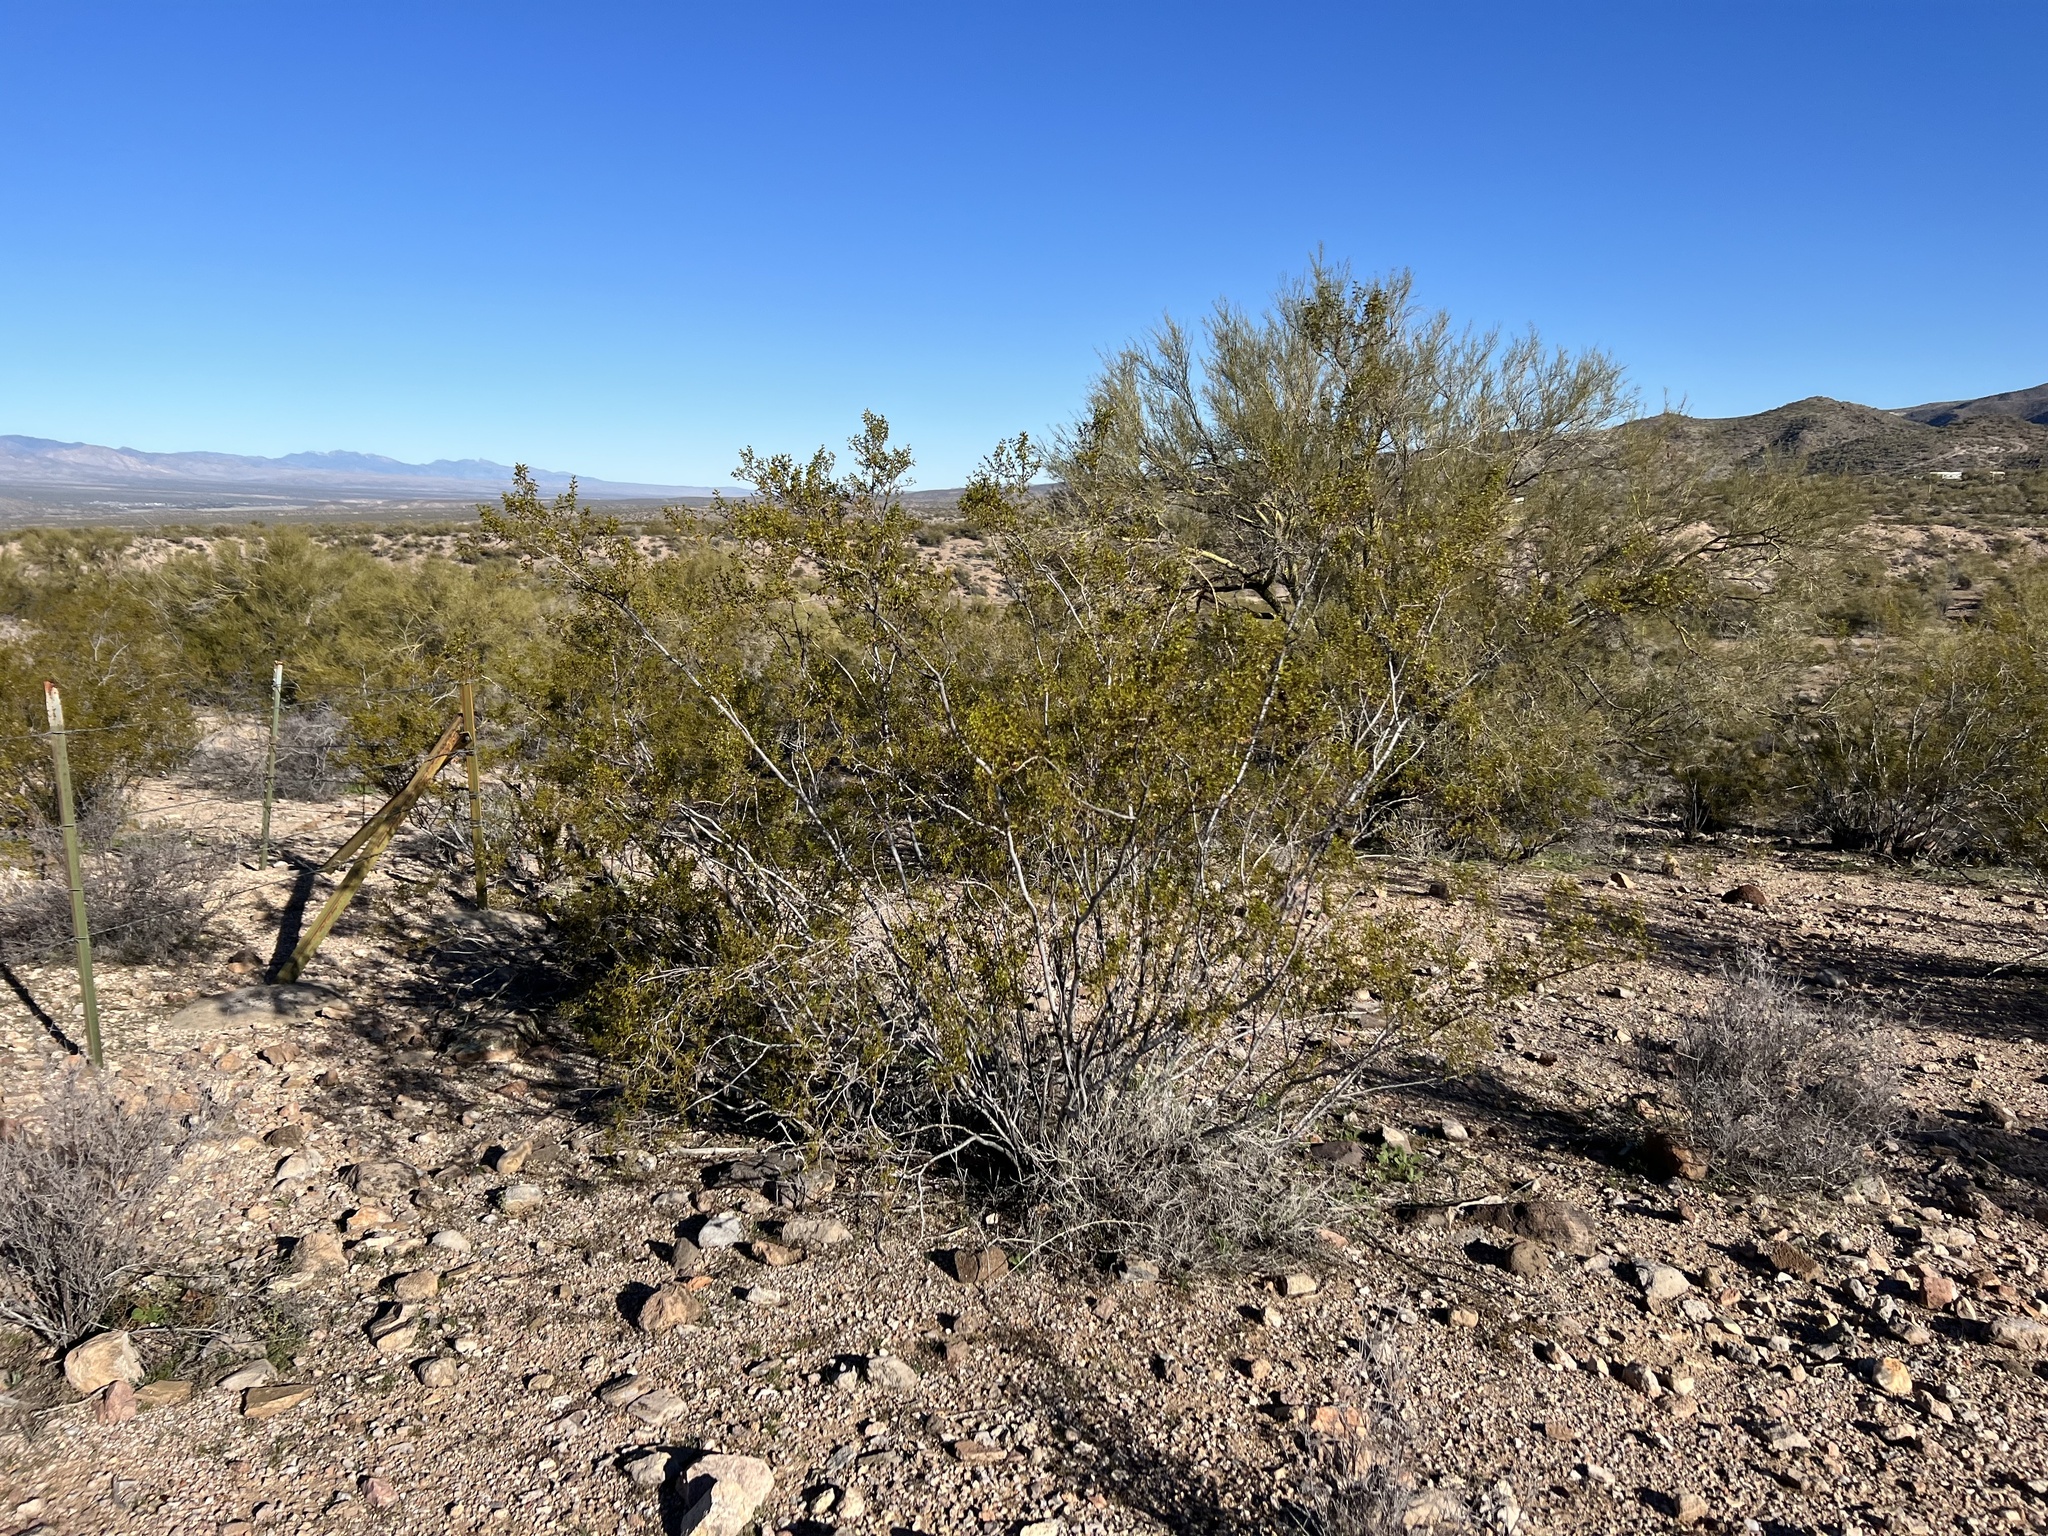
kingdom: Plantae
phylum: Tracheophyta
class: Magnoliopsida
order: Zygophyllales
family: Zygophyllaceae
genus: Larrea
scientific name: Larrea tridentata
